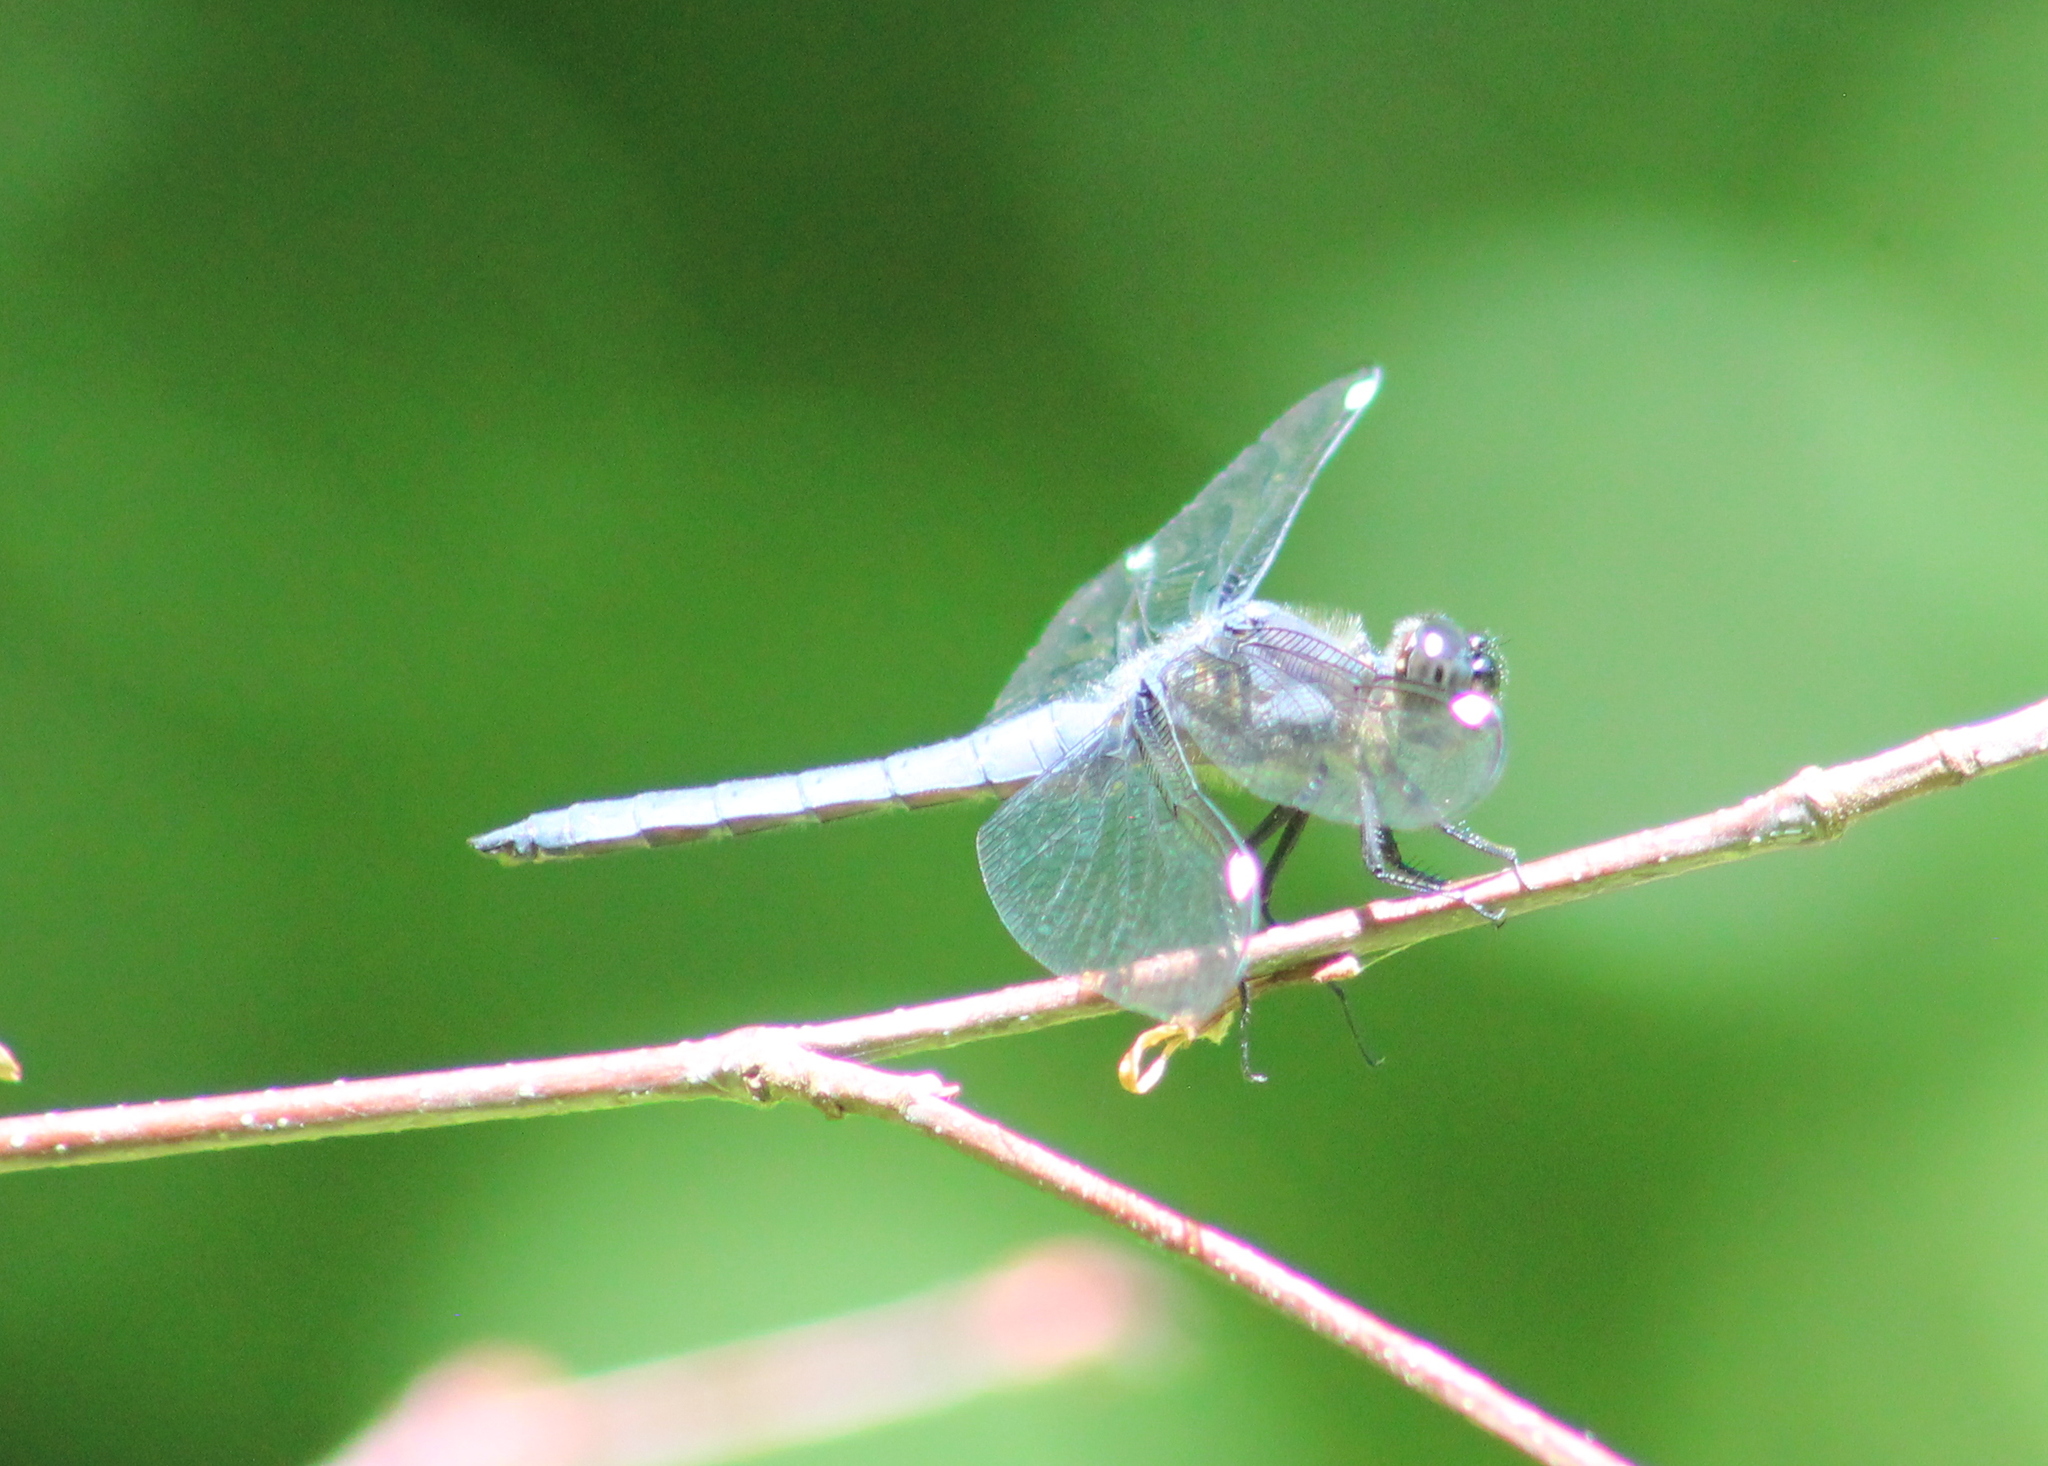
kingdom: Animalia
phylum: Arthropoda
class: Insecta
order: Odonata
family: Libellulidae
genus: Libellula
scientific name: Libellula cyanea
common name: Spangled skimmer
